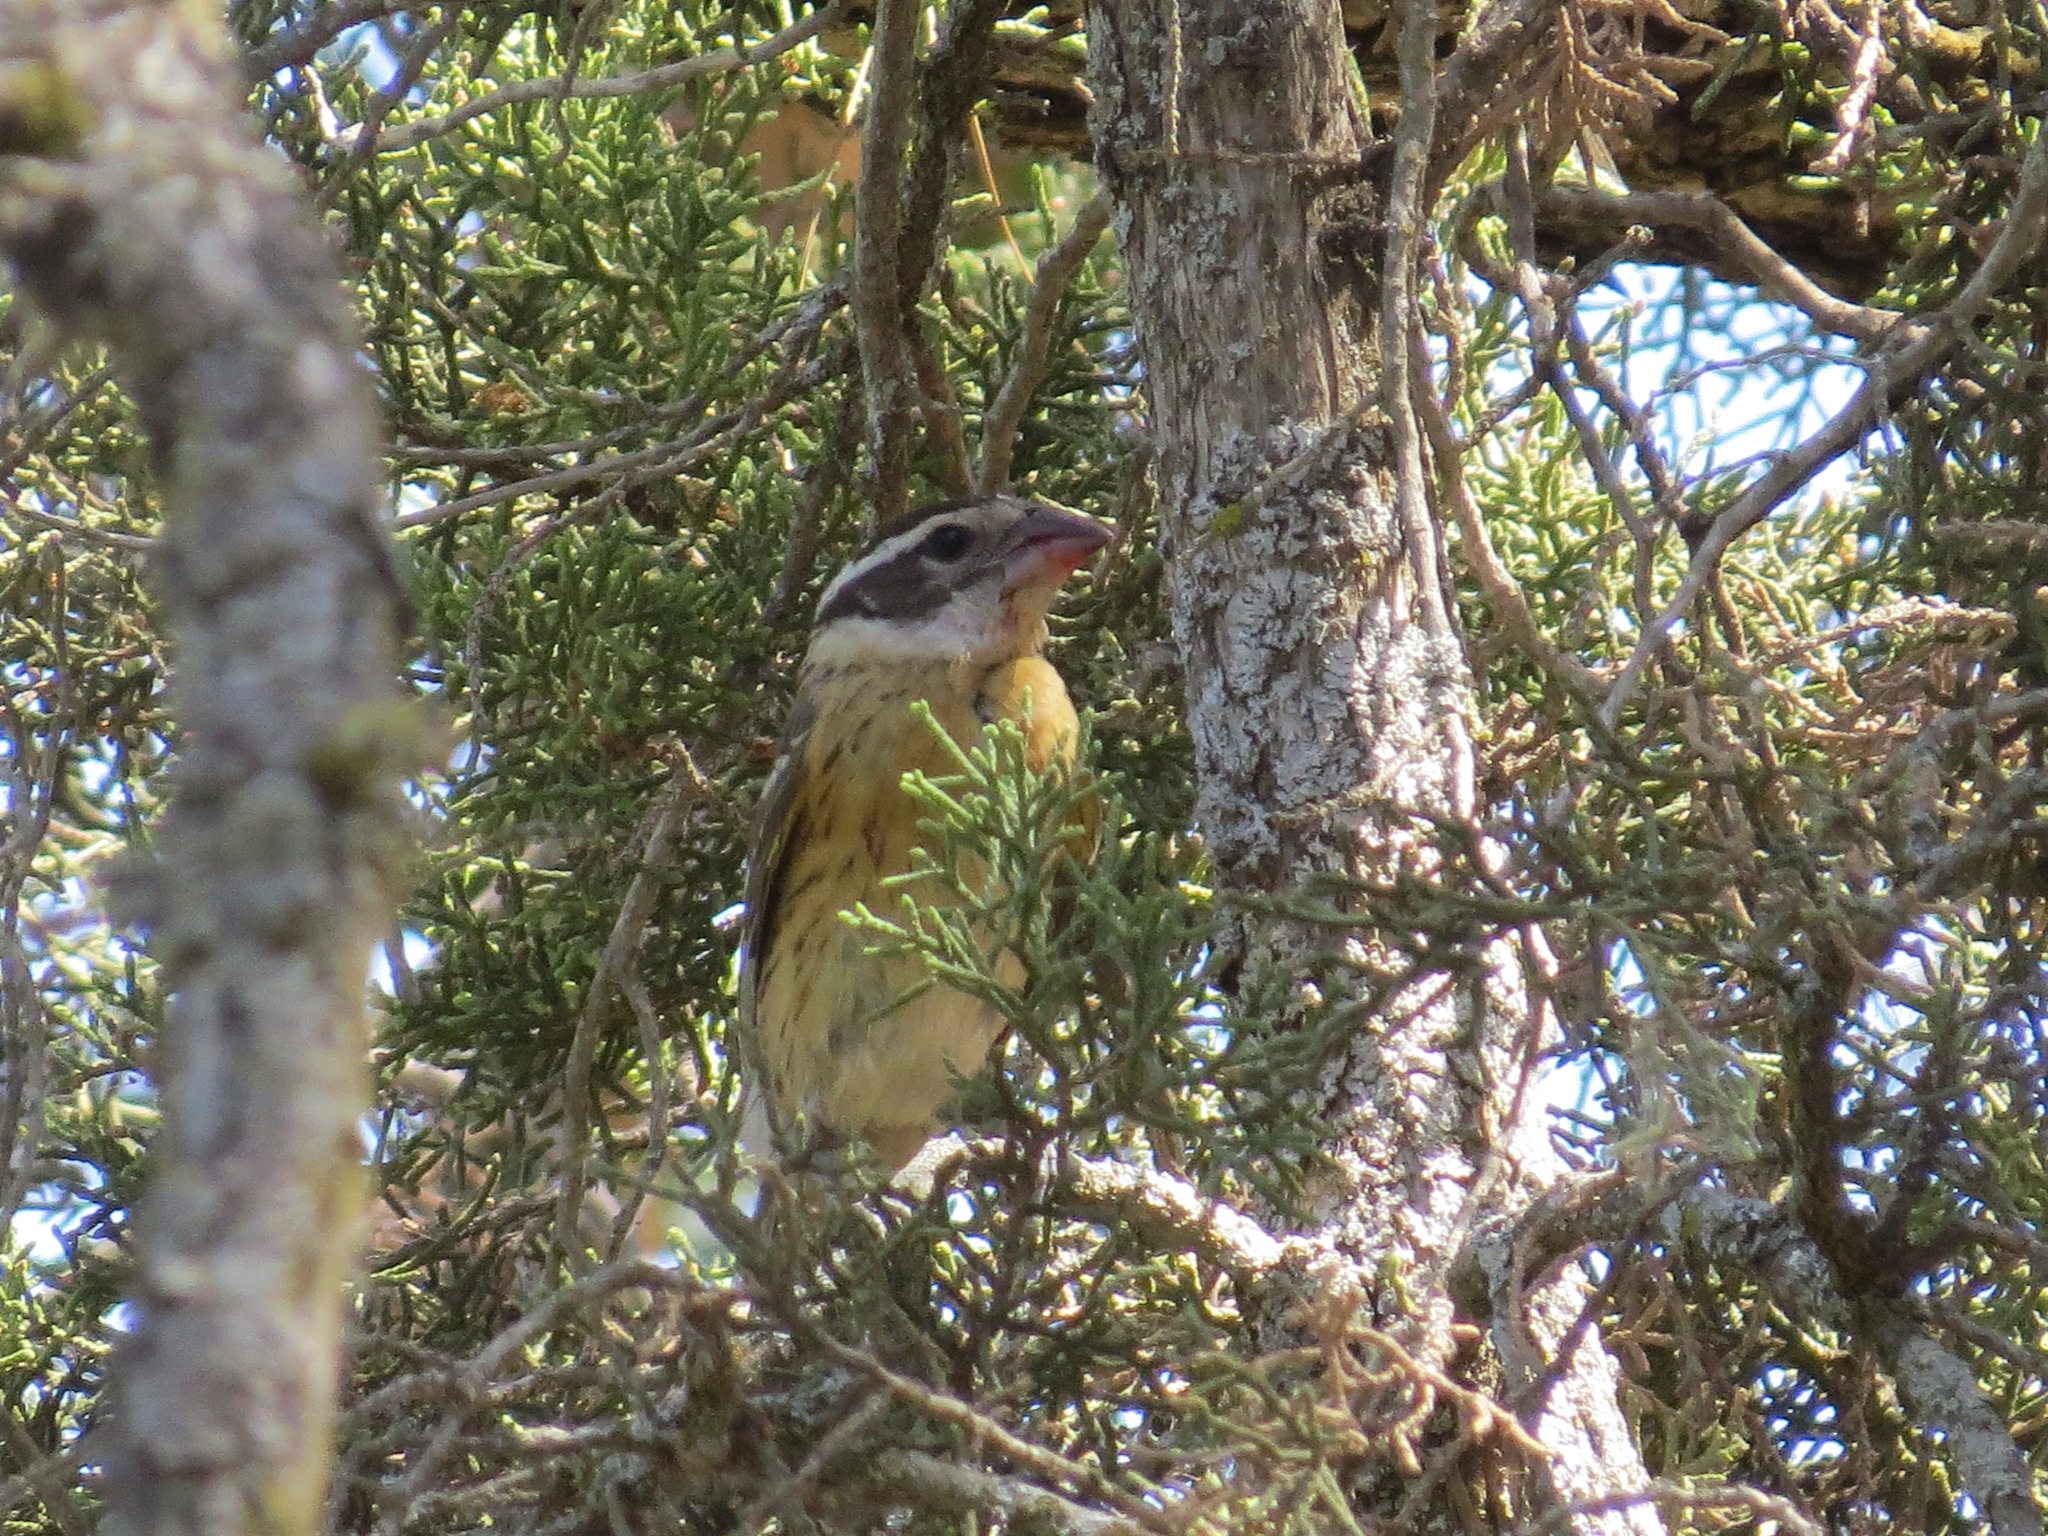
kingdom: Animalia
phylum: Chordata
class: Aves
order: Passeriformes
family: Cardinalidae
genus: Pheucticus
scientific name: Pheucticus melanocephalus
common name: Black-headed grosbeak
